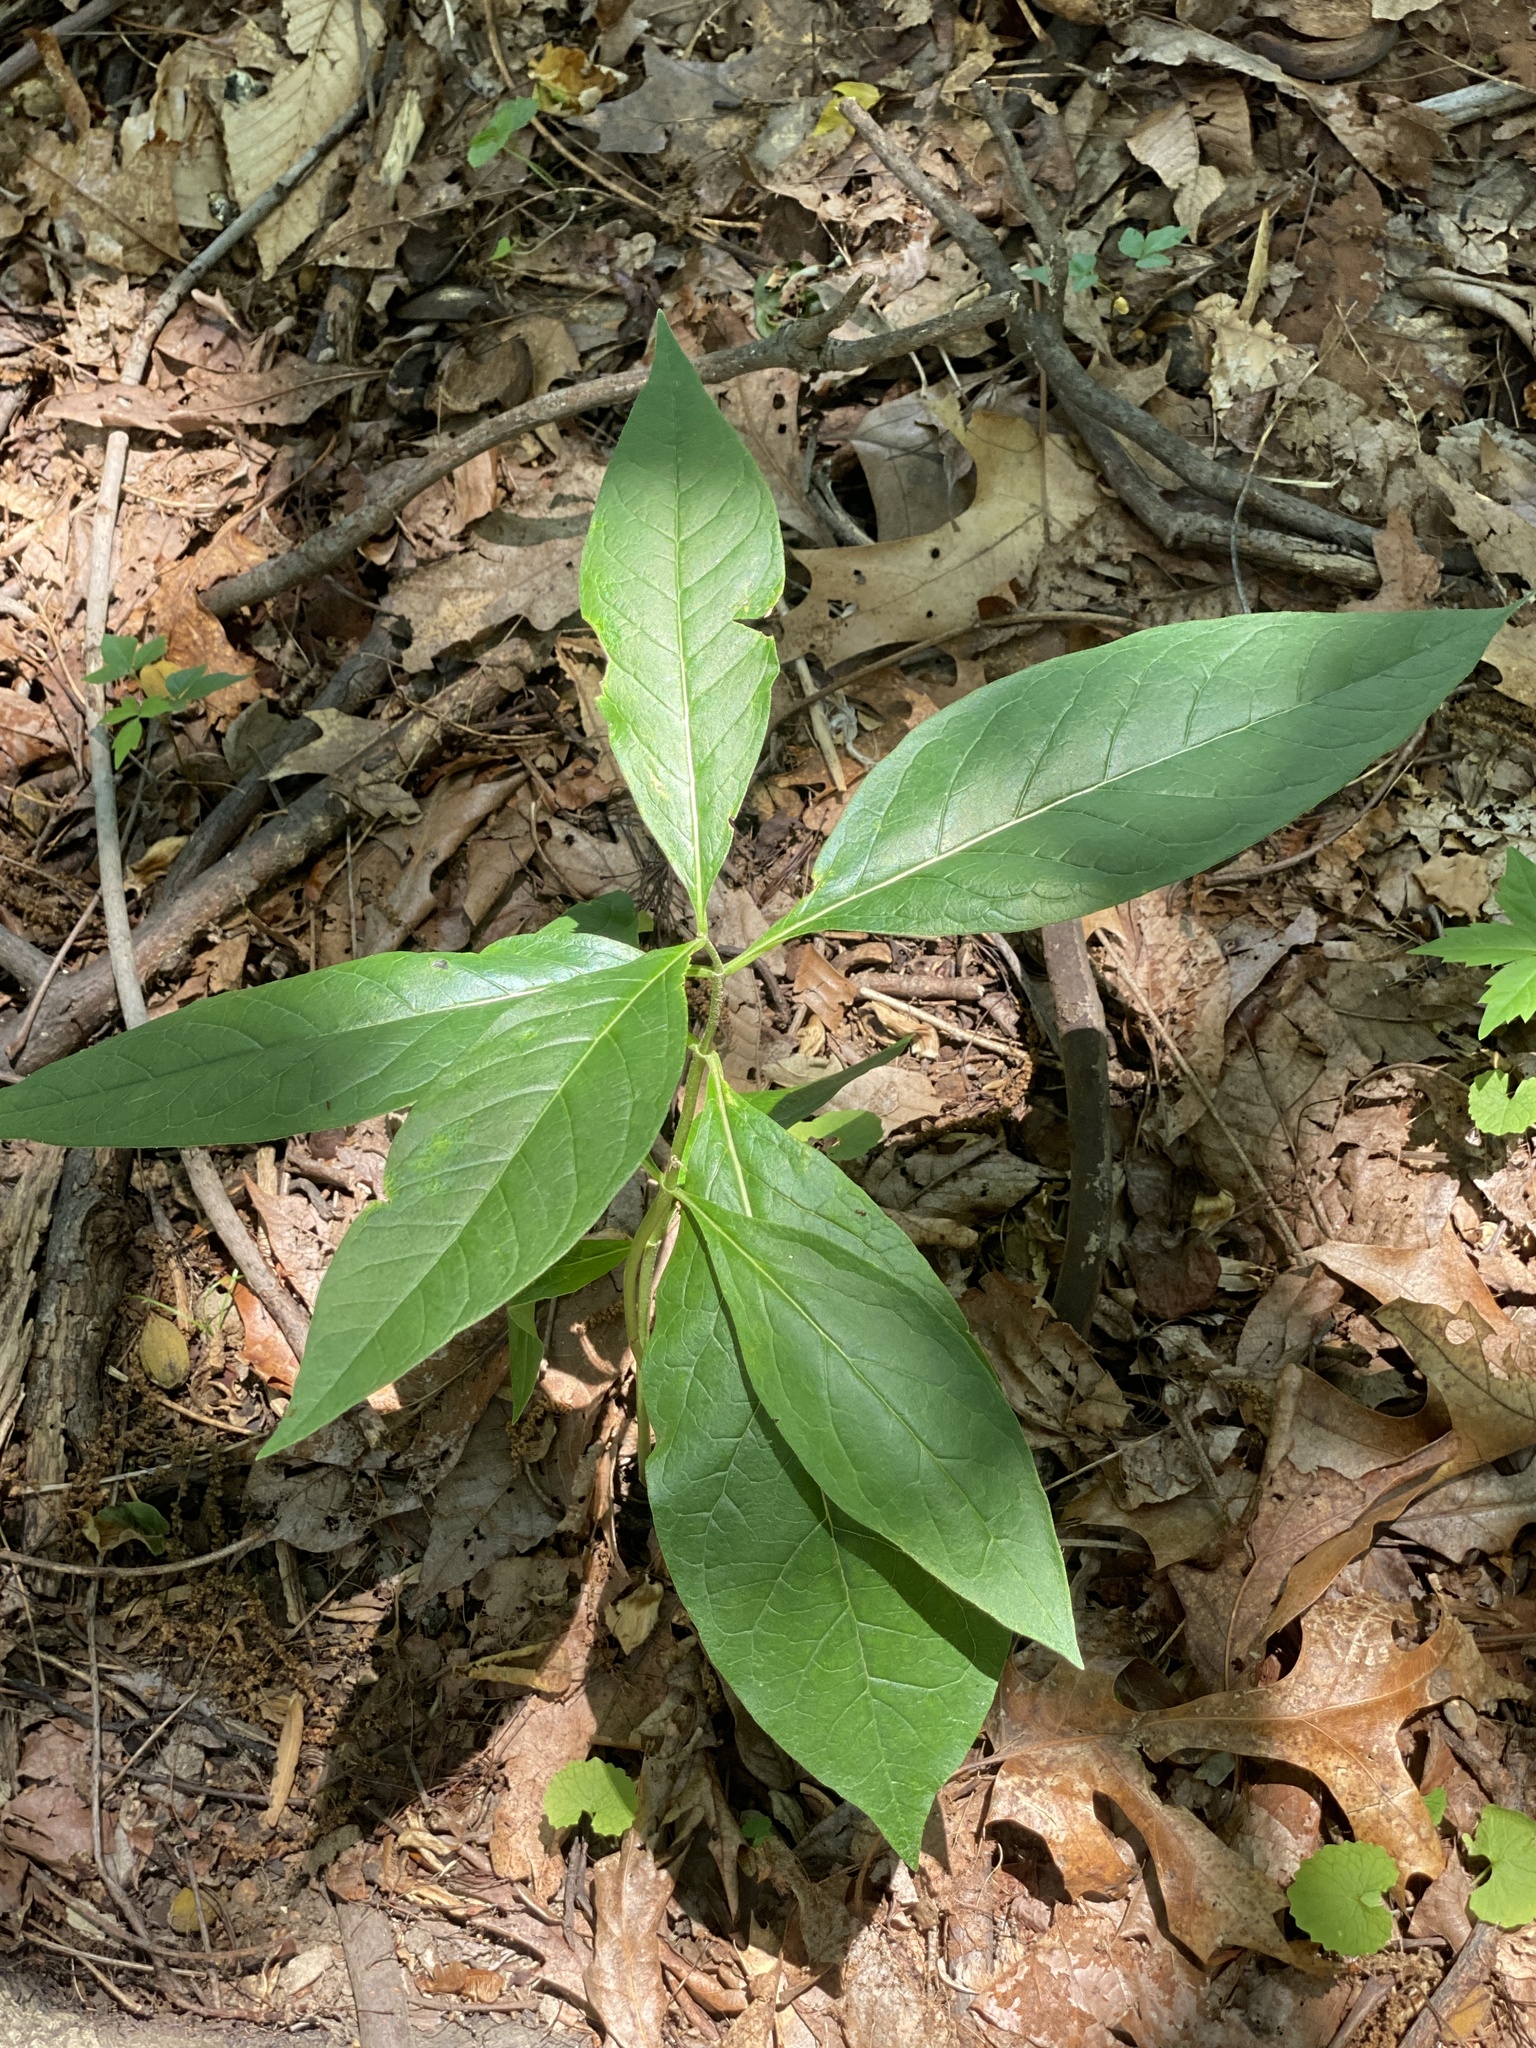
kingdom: Plantae
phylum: Tracheophyta
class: Magnoliopsida
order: Gentianales
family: Apocynaceae
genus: Asclepias
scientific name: Asclepias exaltata
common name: Poke milkweed
